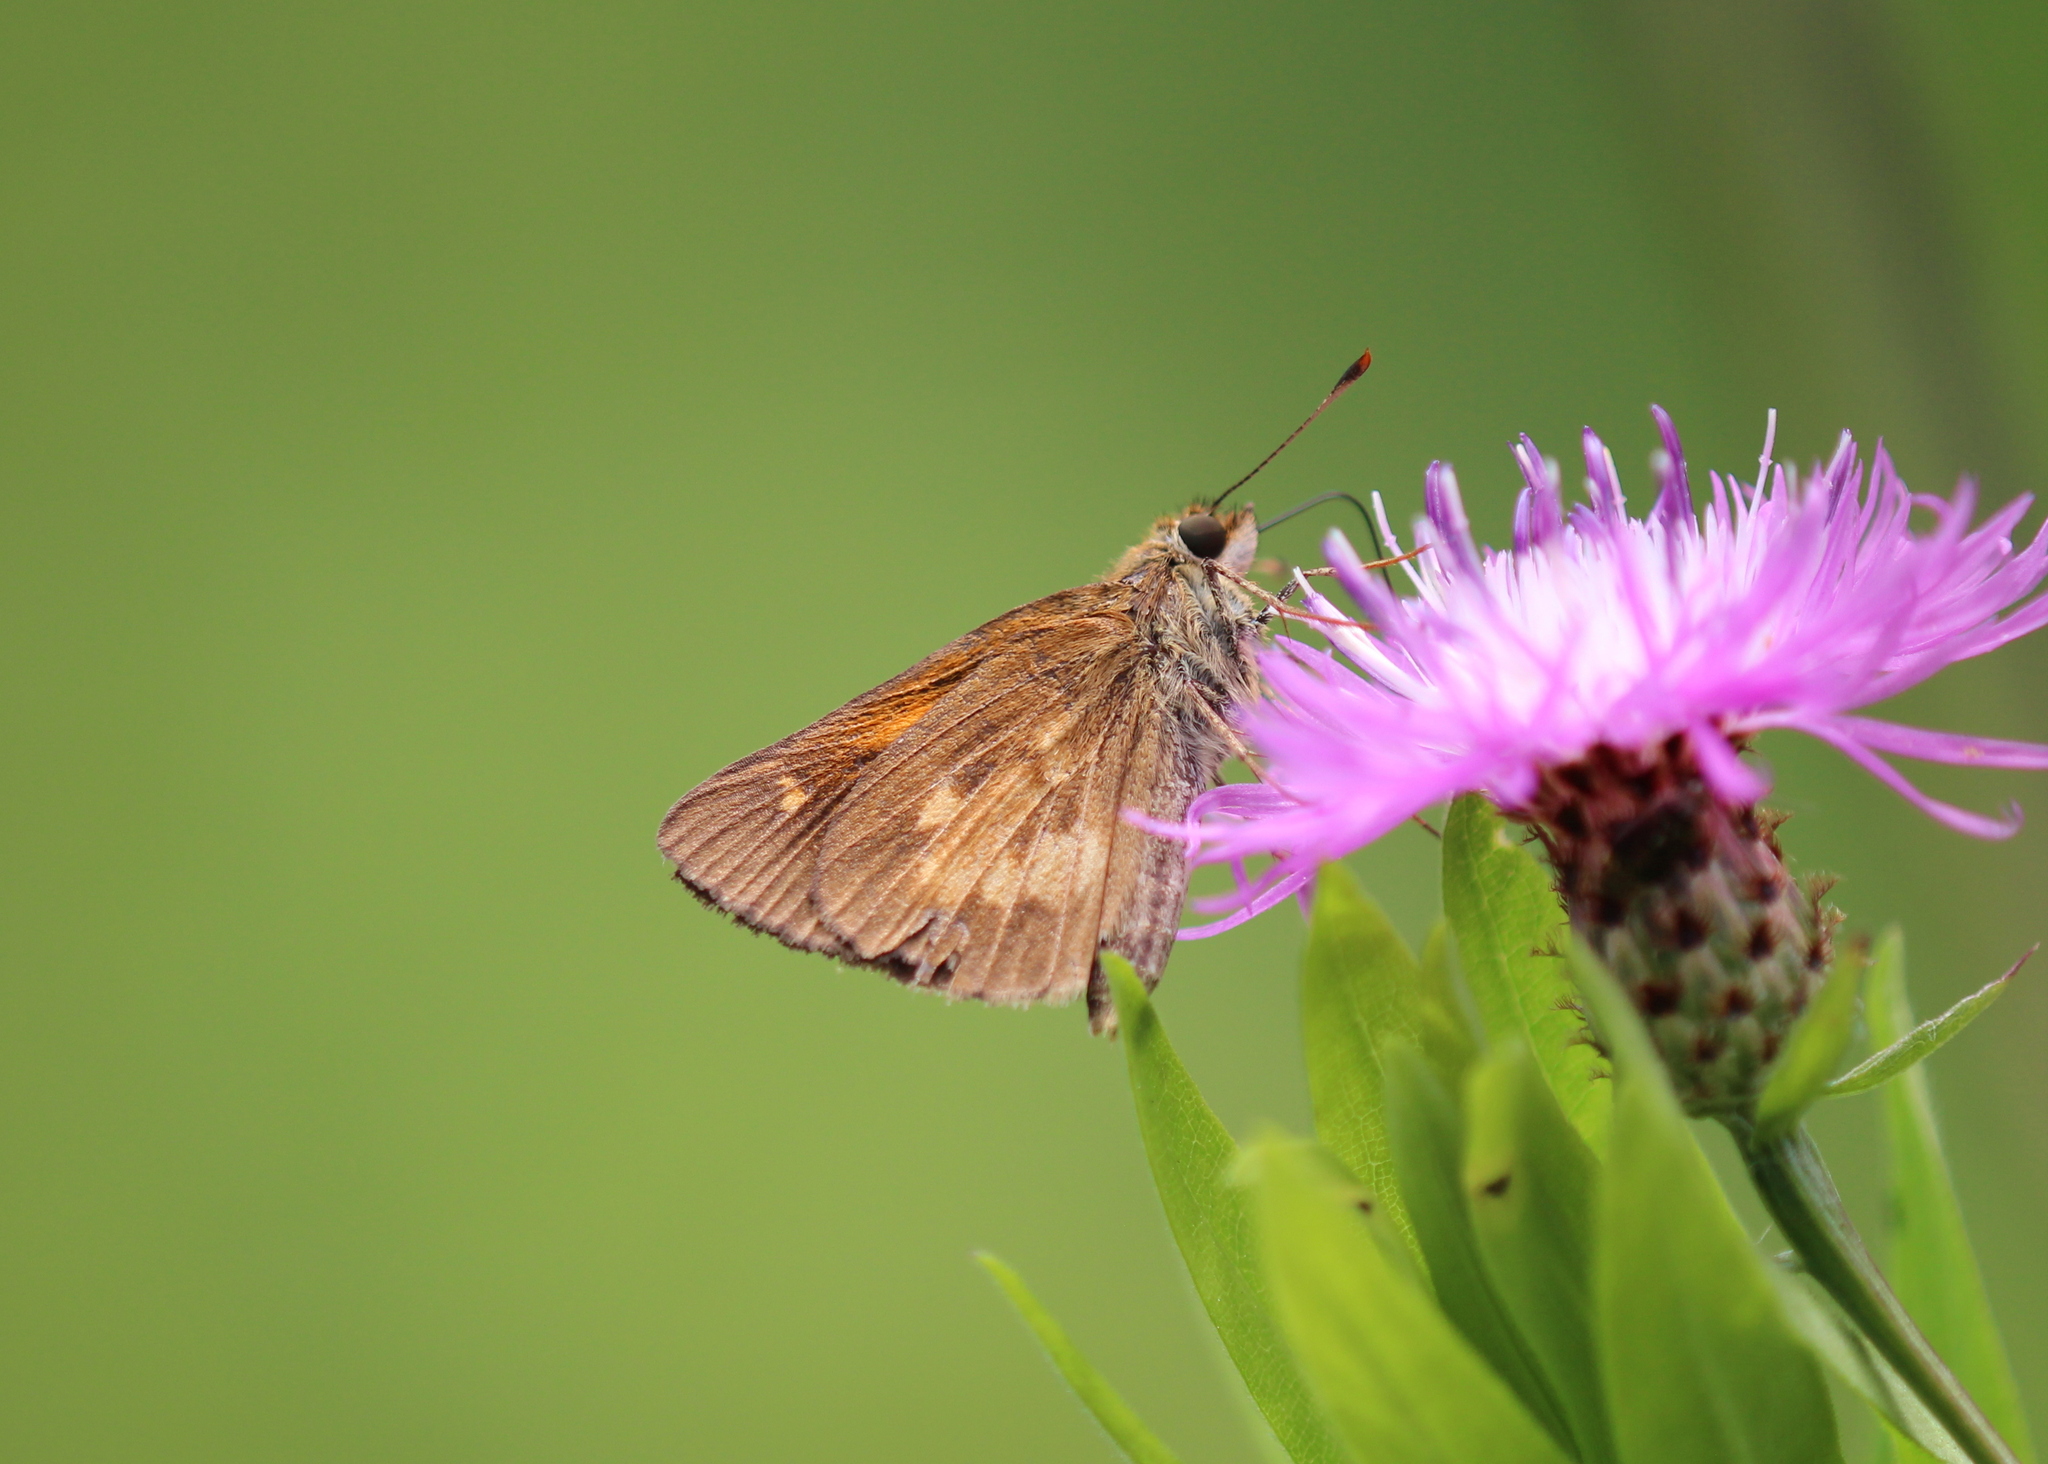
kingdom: Animalia
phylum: Arthropoda
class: Insecta
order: Lepidoptera
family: Hesperiidae
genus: Poanes
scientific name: Poanes viator
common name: Broad-winged skipper
